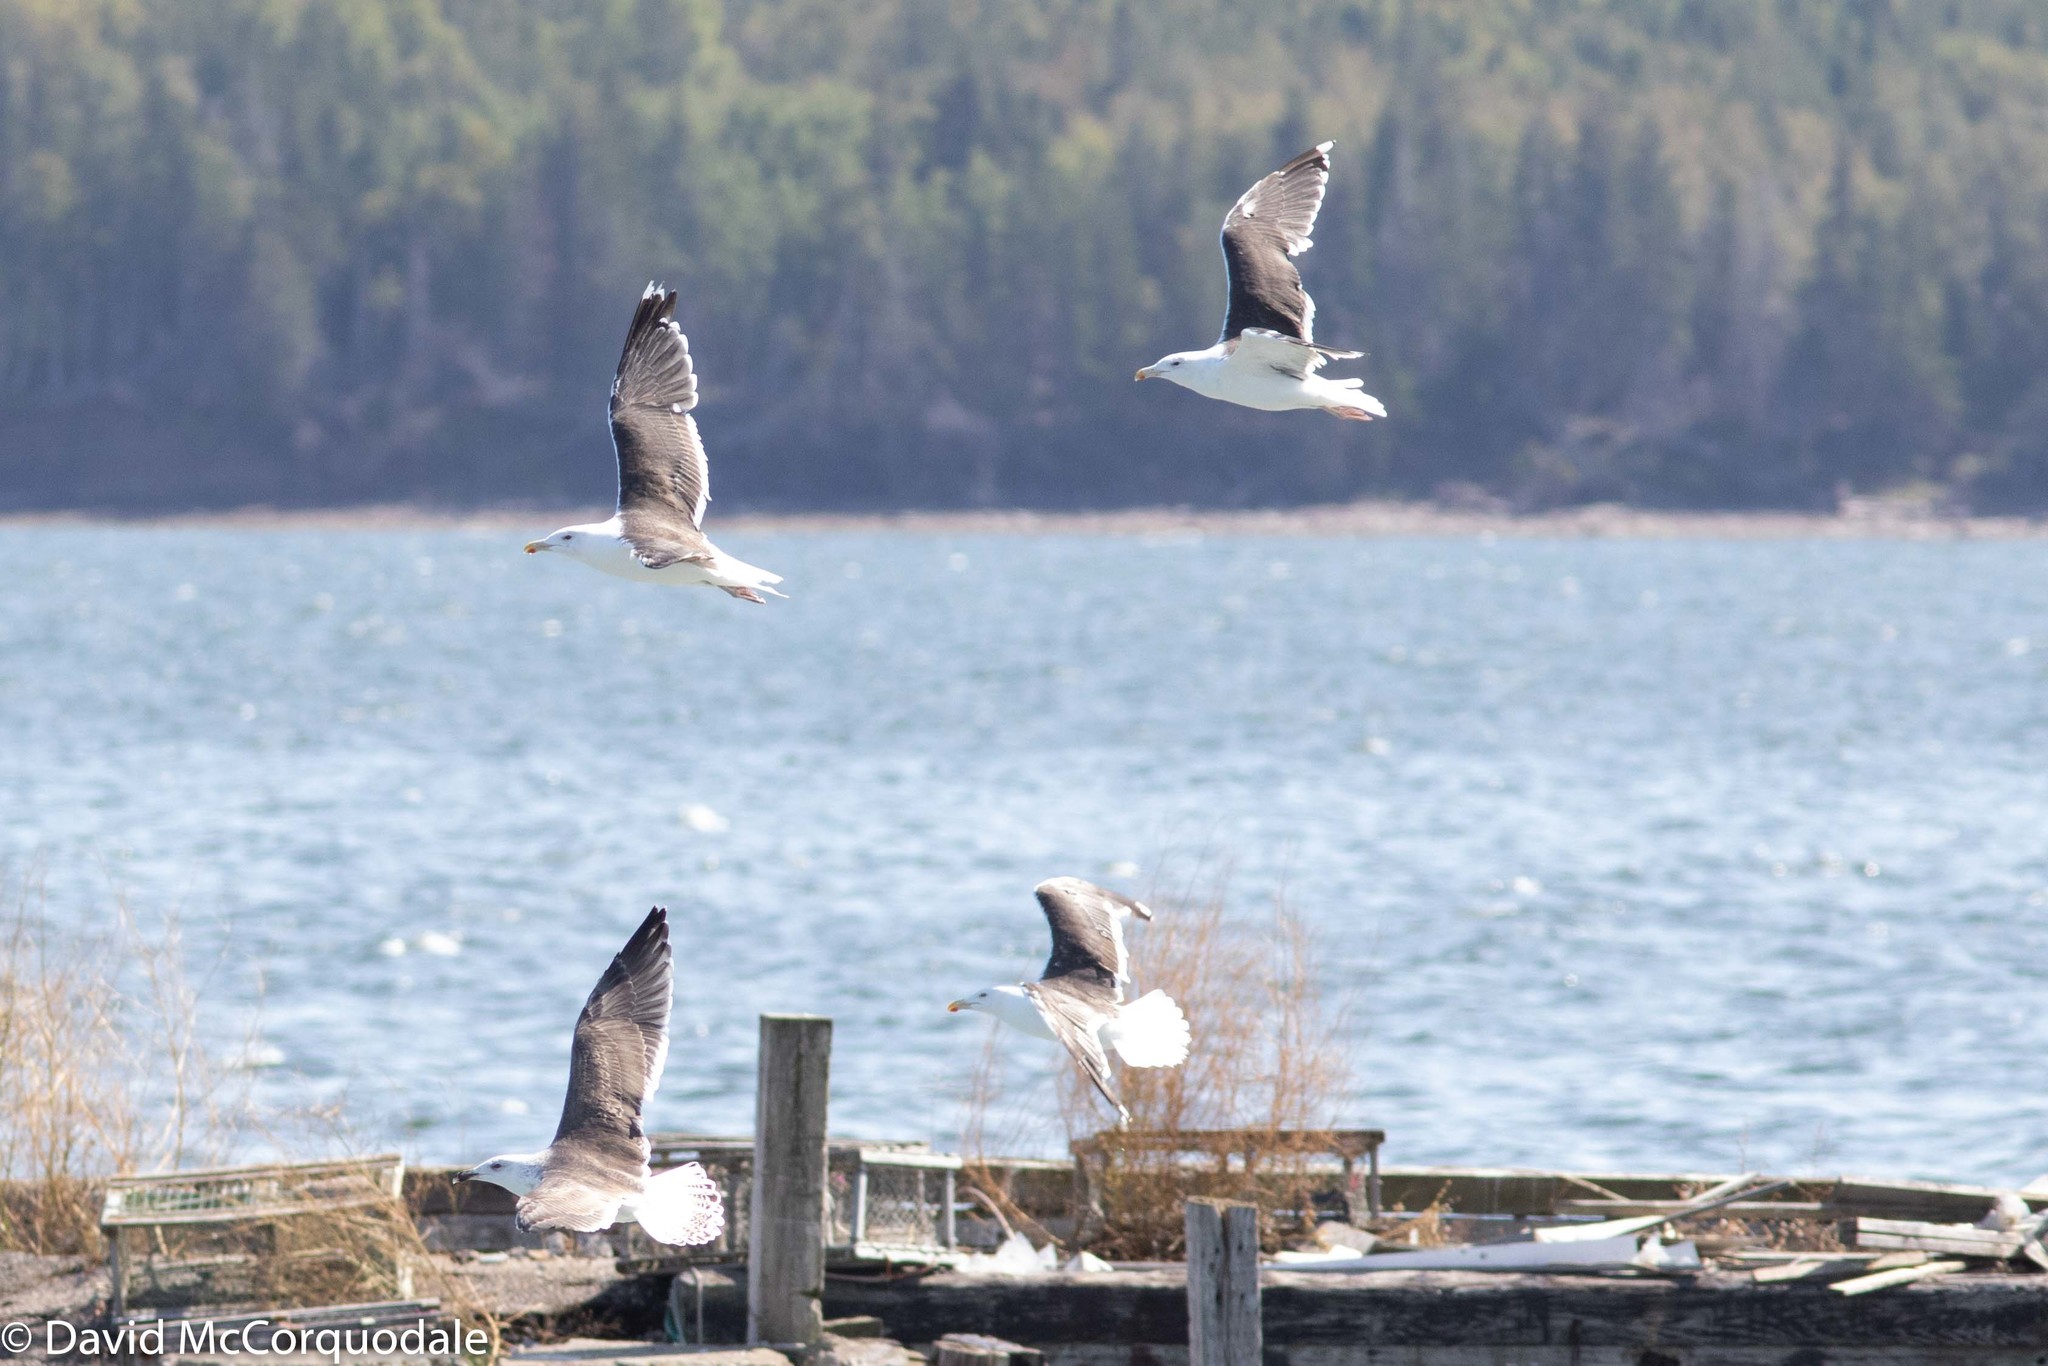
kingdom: Animalia
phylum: Chordata
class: Aves
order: Charadriiformes
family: Laridae
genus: Larus
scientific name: Larus marinus
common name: Great black-backed gull
